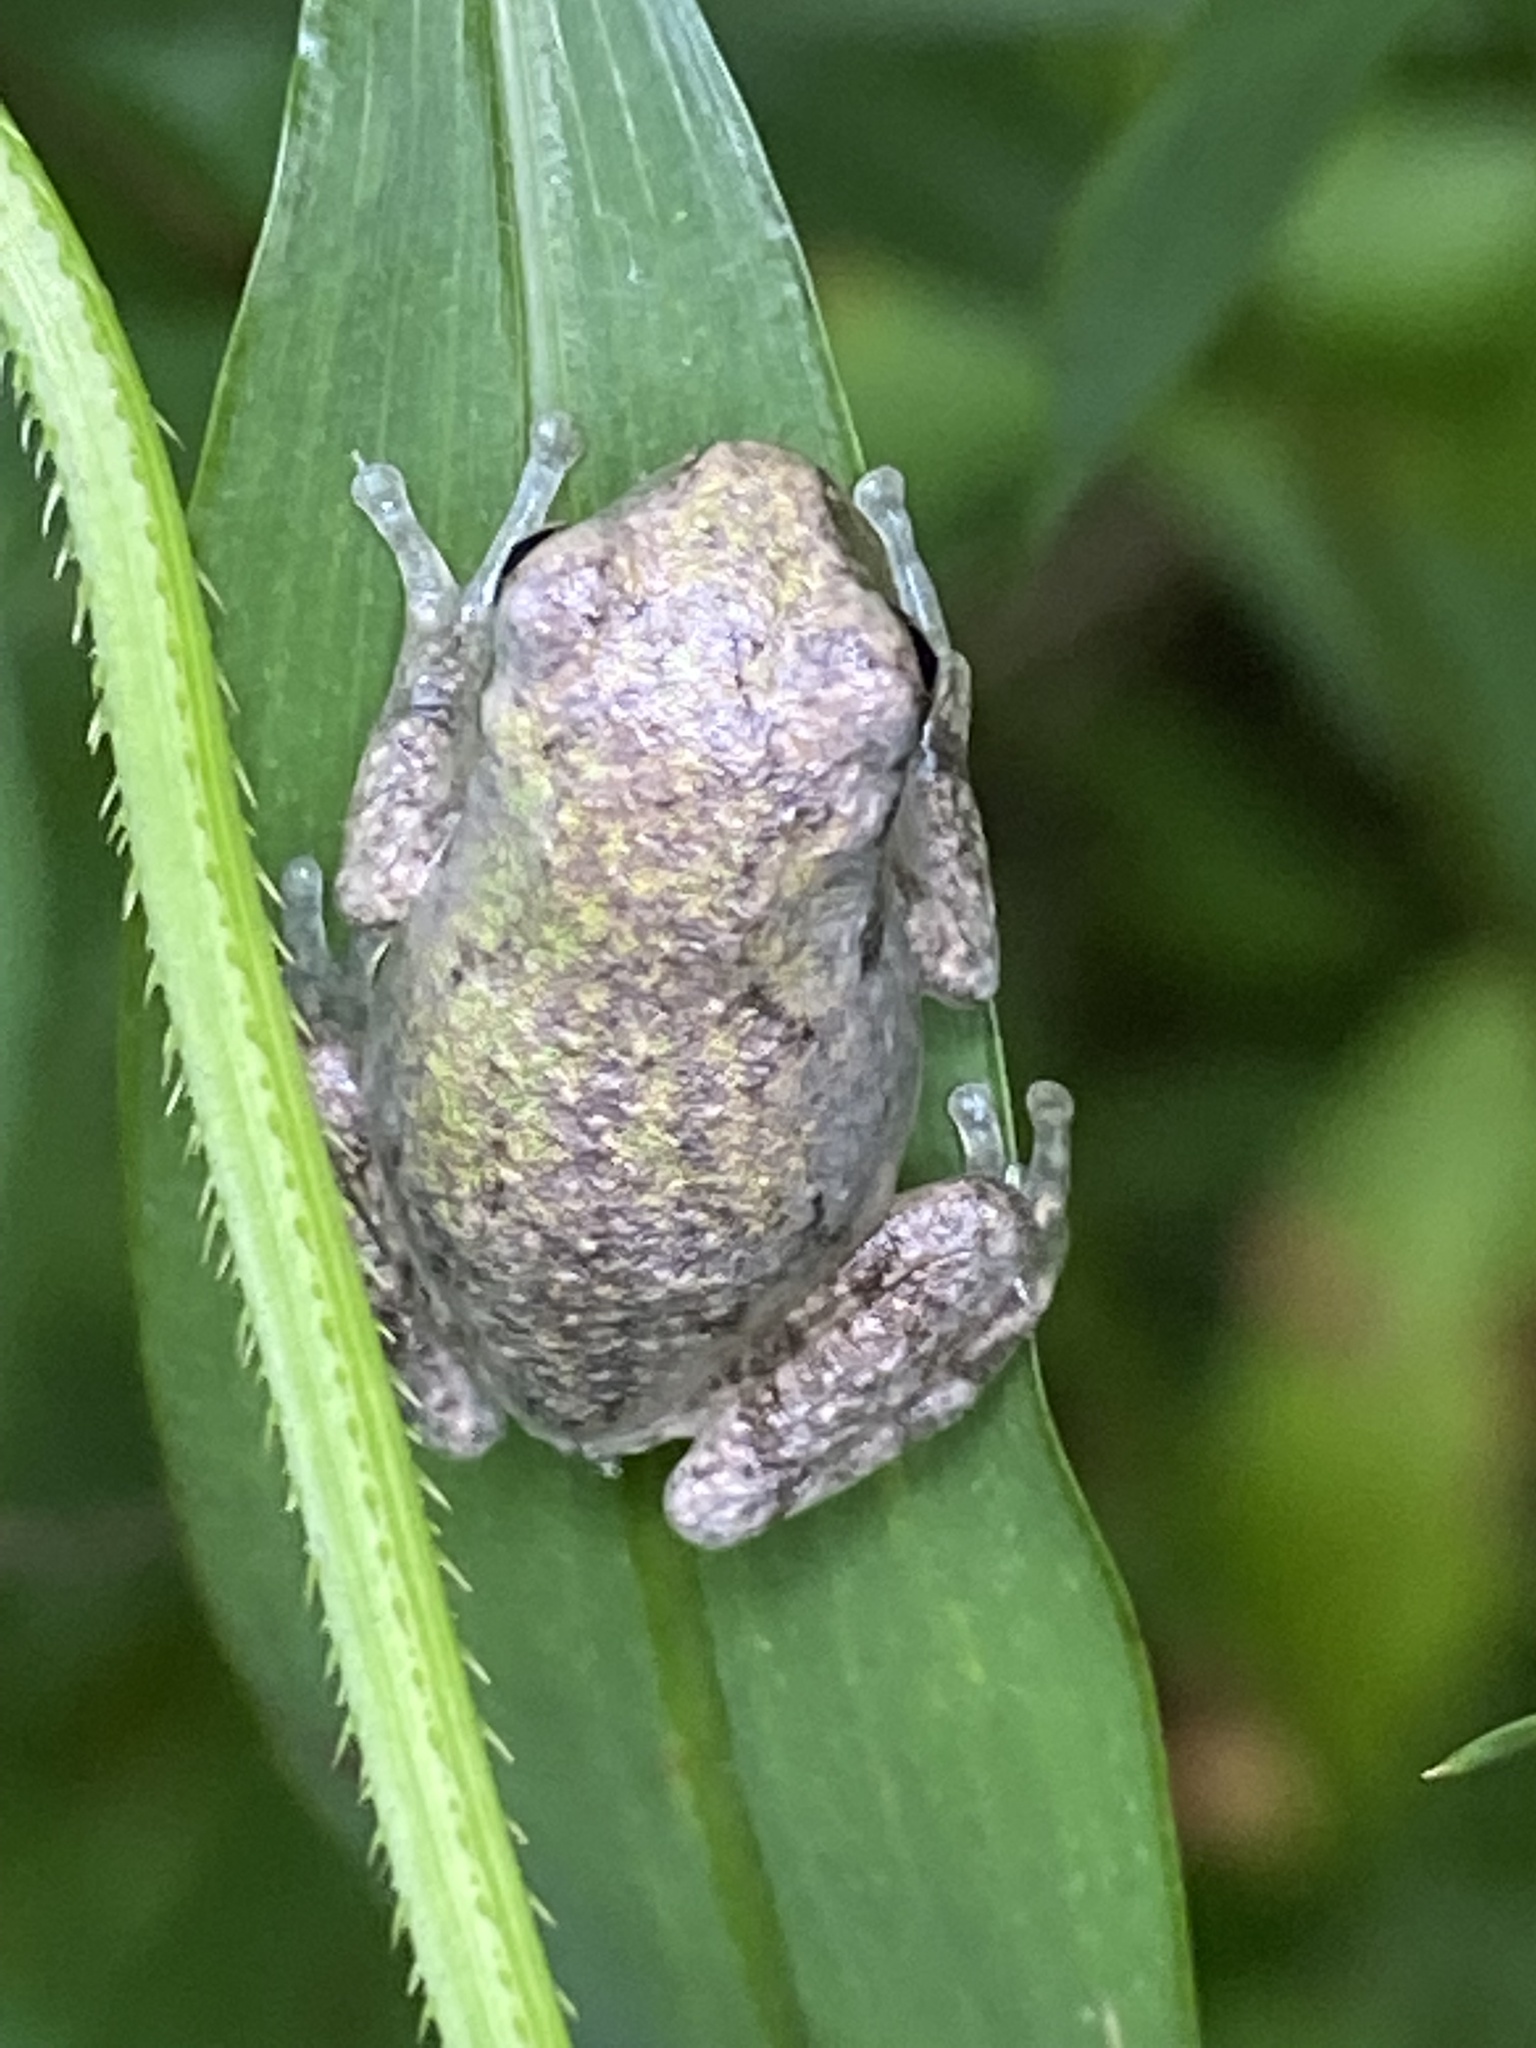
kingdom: Animalia
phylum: Chordata
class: Amphibia
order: Anura
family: Hylidae
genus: Dryophytes
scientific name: Dryophytes chrysoscelis
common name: Cope's gray treefrog
